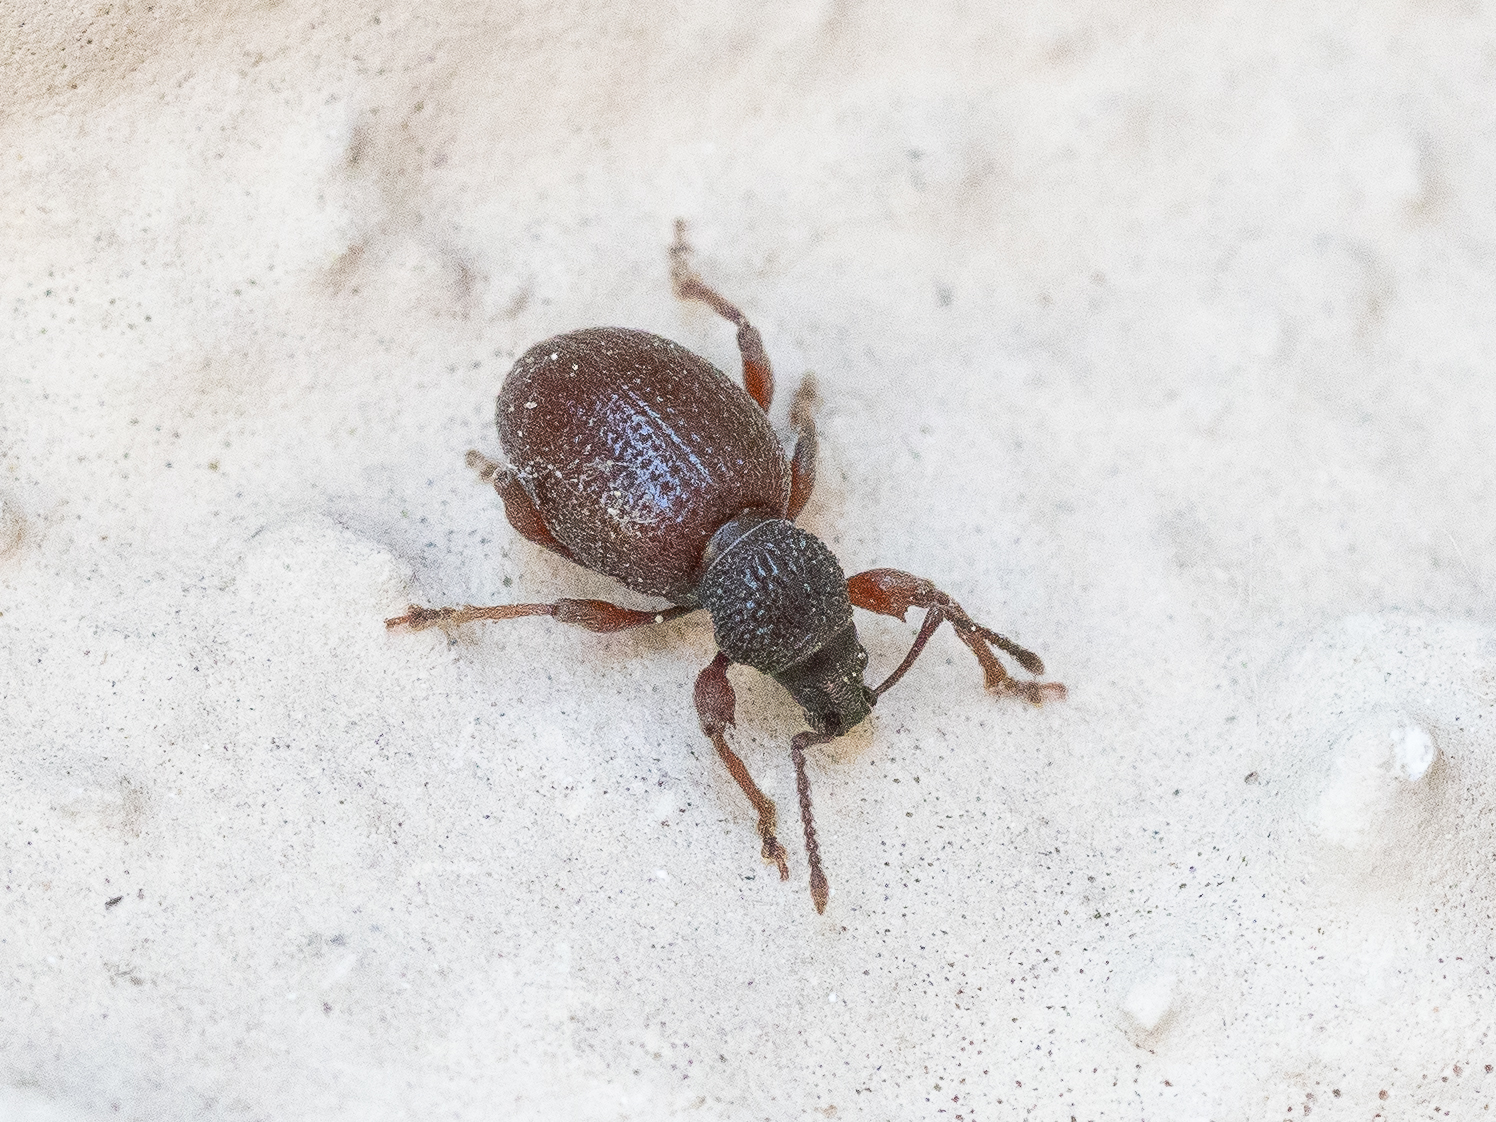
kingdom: Animalia
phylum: Arthropoda
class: Insecta
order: Coleoptera
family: Curculionidae
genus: Otiorhynchus
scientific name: Otiorhynchus ovatus
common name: Strawberry root weevil
